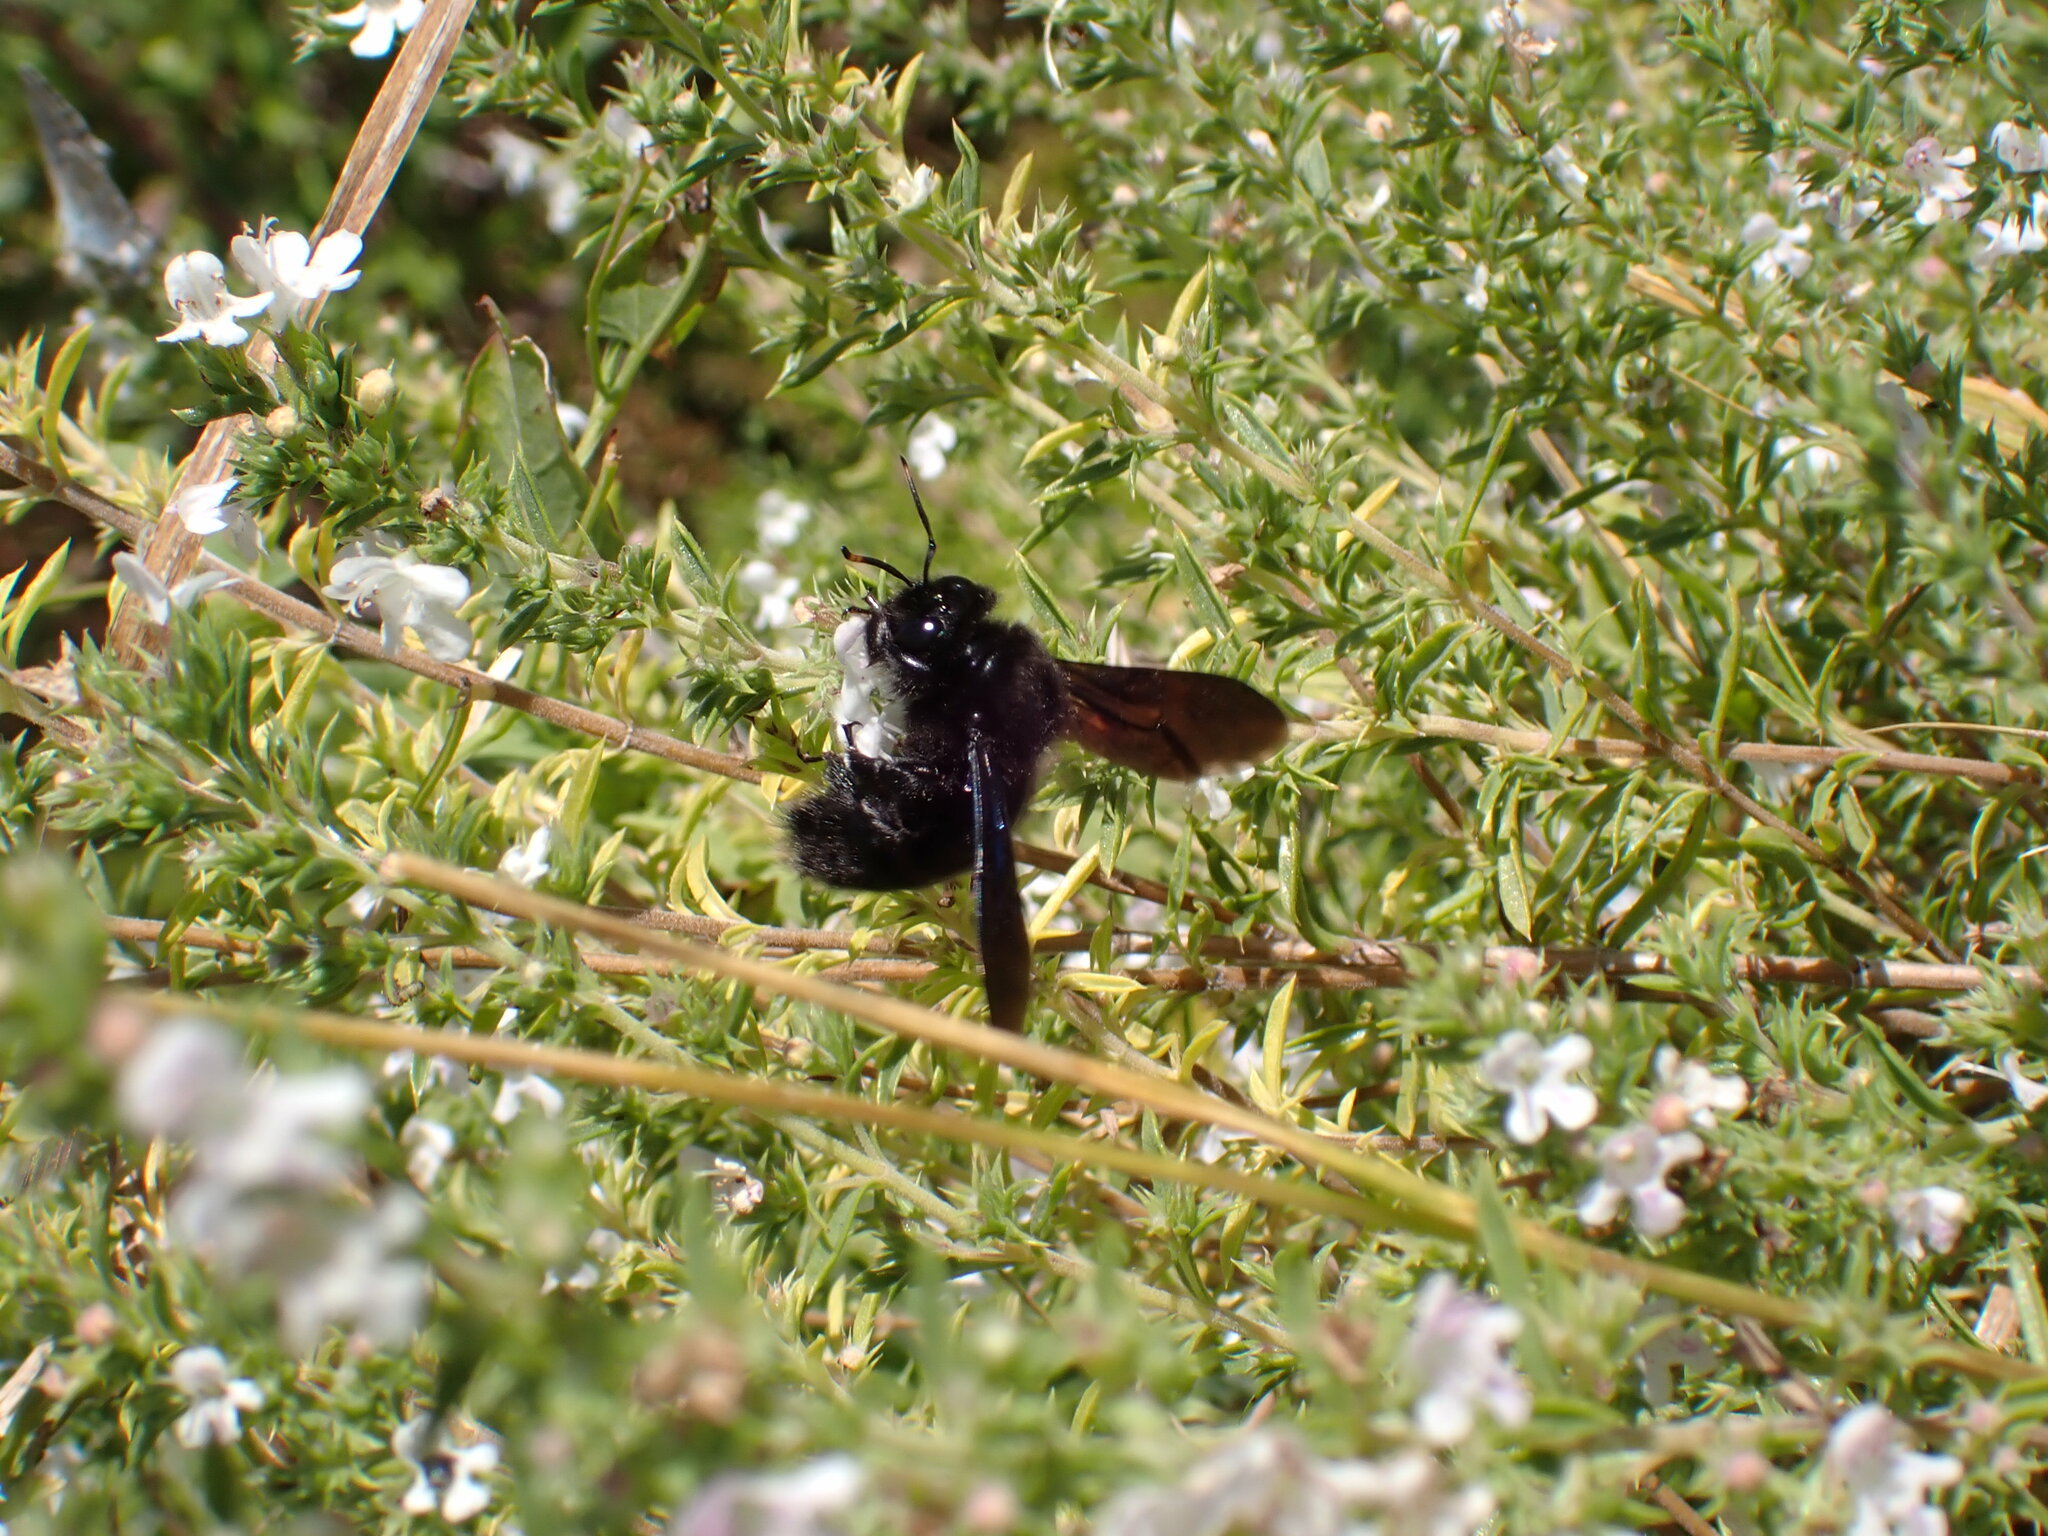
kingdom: Animalia
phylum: Arthropoda
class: Insecta
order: Hymenoptera
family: Apidae
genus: Xylocopa
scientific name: Xylocopa violacea
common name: Violet carpenter bee
